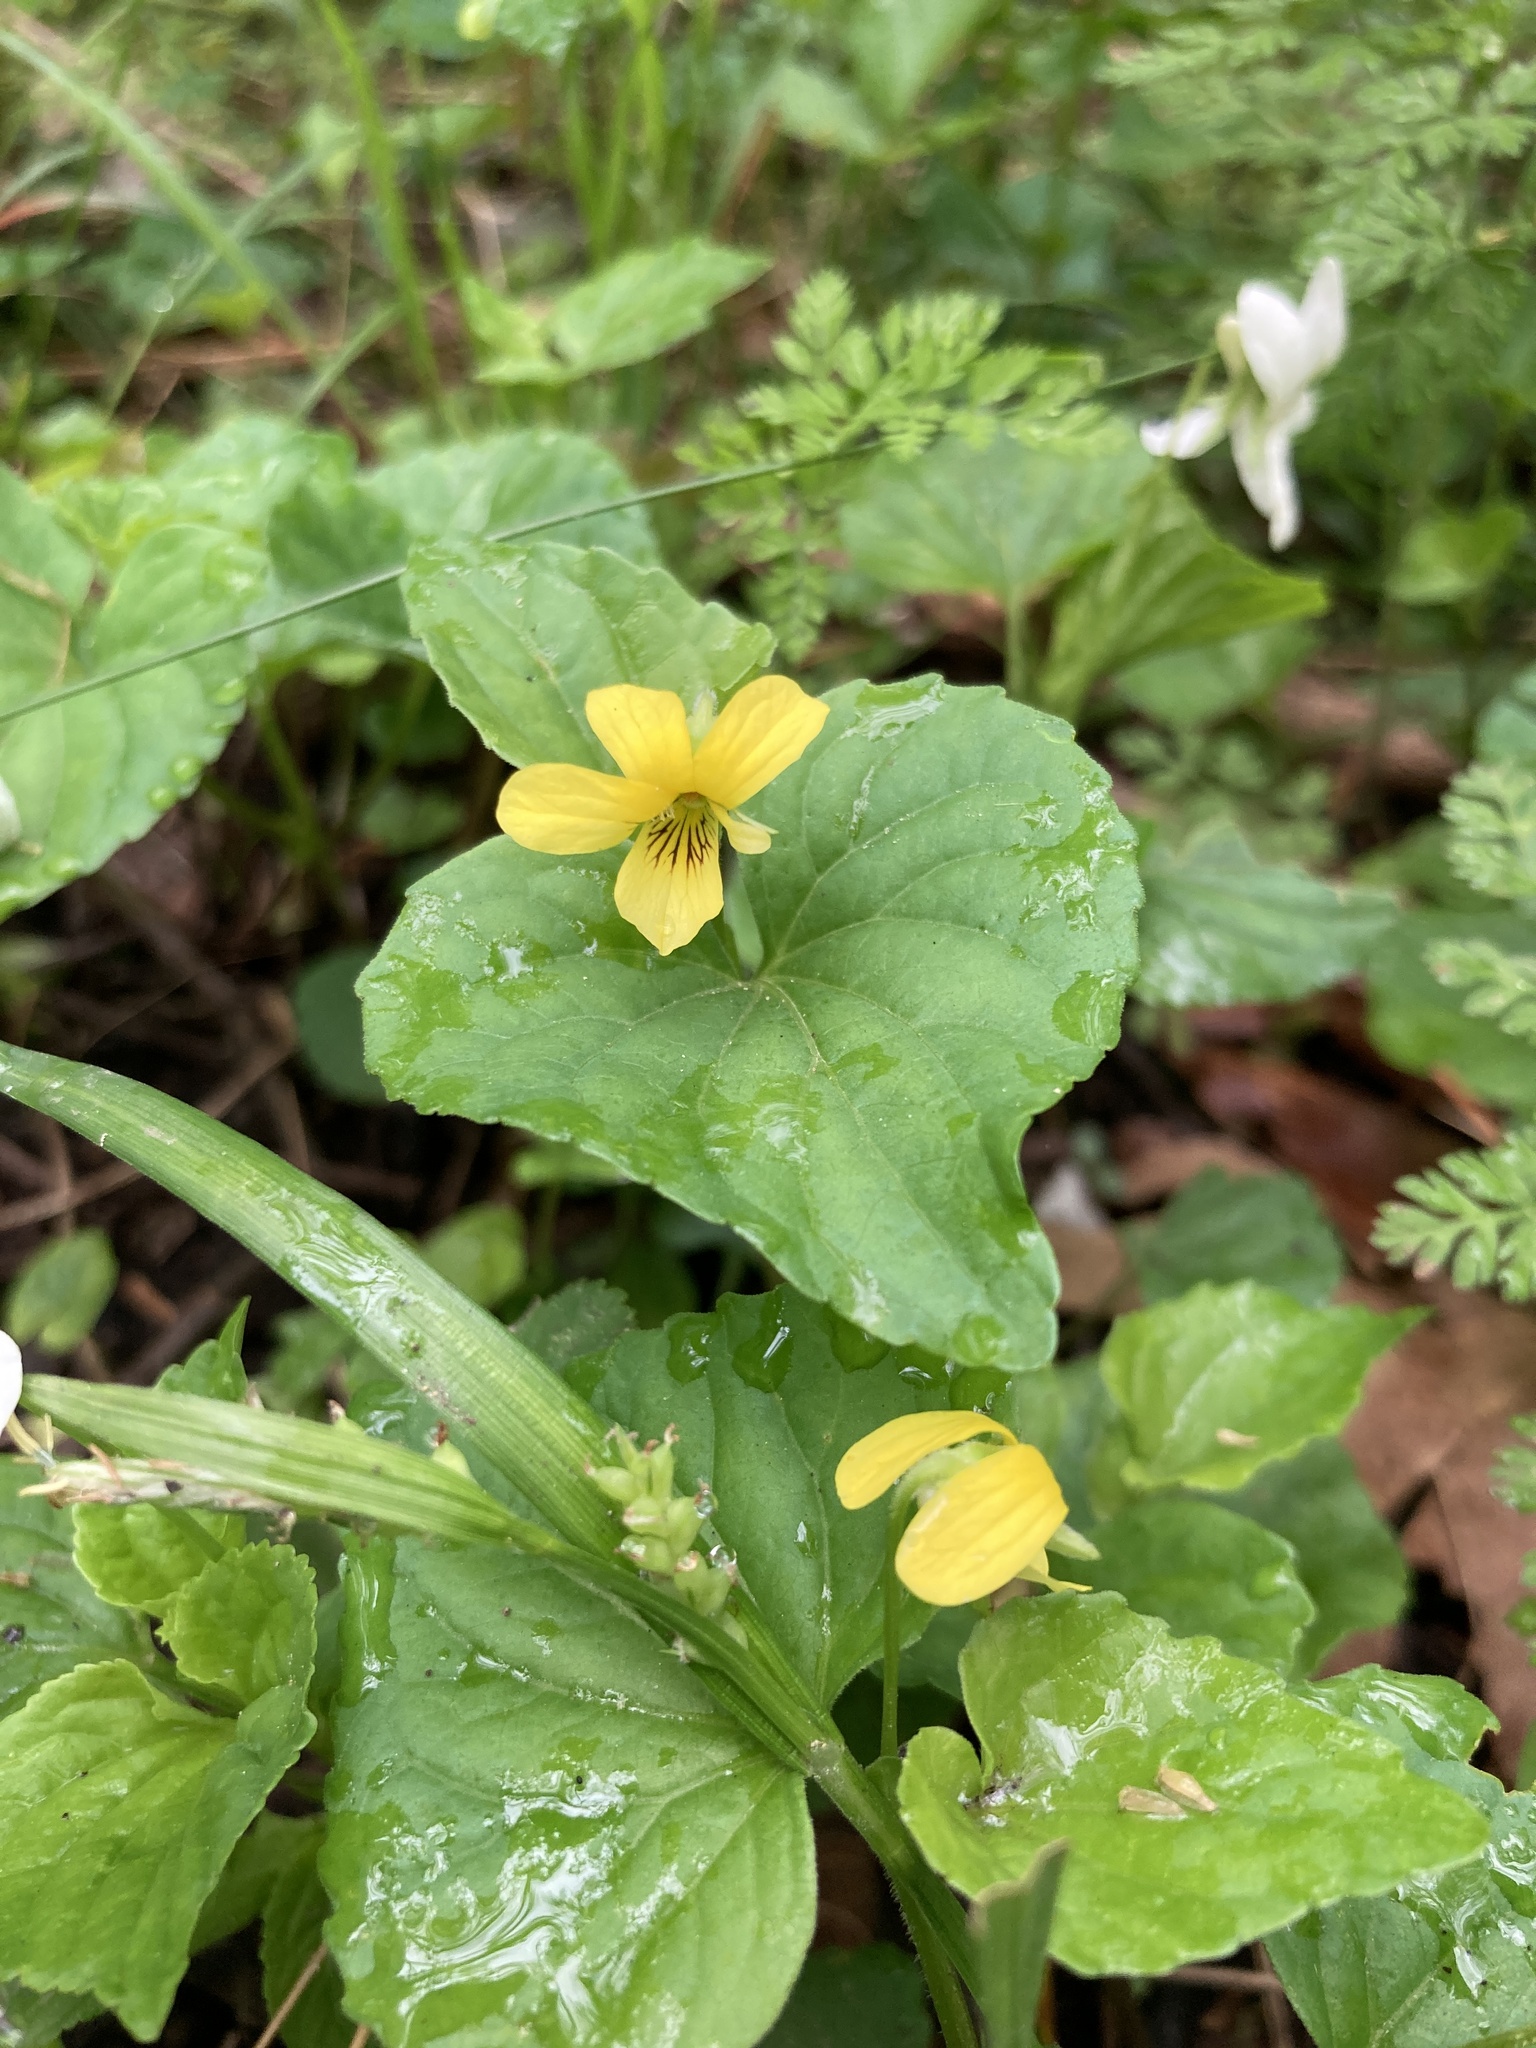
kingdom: Plantae
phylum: Tracheophyta
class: Magnoliopsida
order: Malpighiales
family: Violaceae
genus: Viola
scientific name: Viola eriocarpa
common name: Smooth yellow violet
